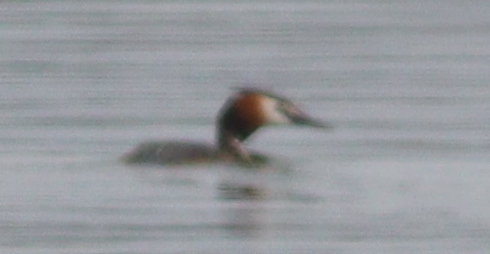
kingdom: Animalia
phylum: Chordata
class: Aves
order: Podicipediformes
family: Podicipedidae
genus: Podiceps
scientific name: Podiceps cristatus
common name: Great crested grebe
